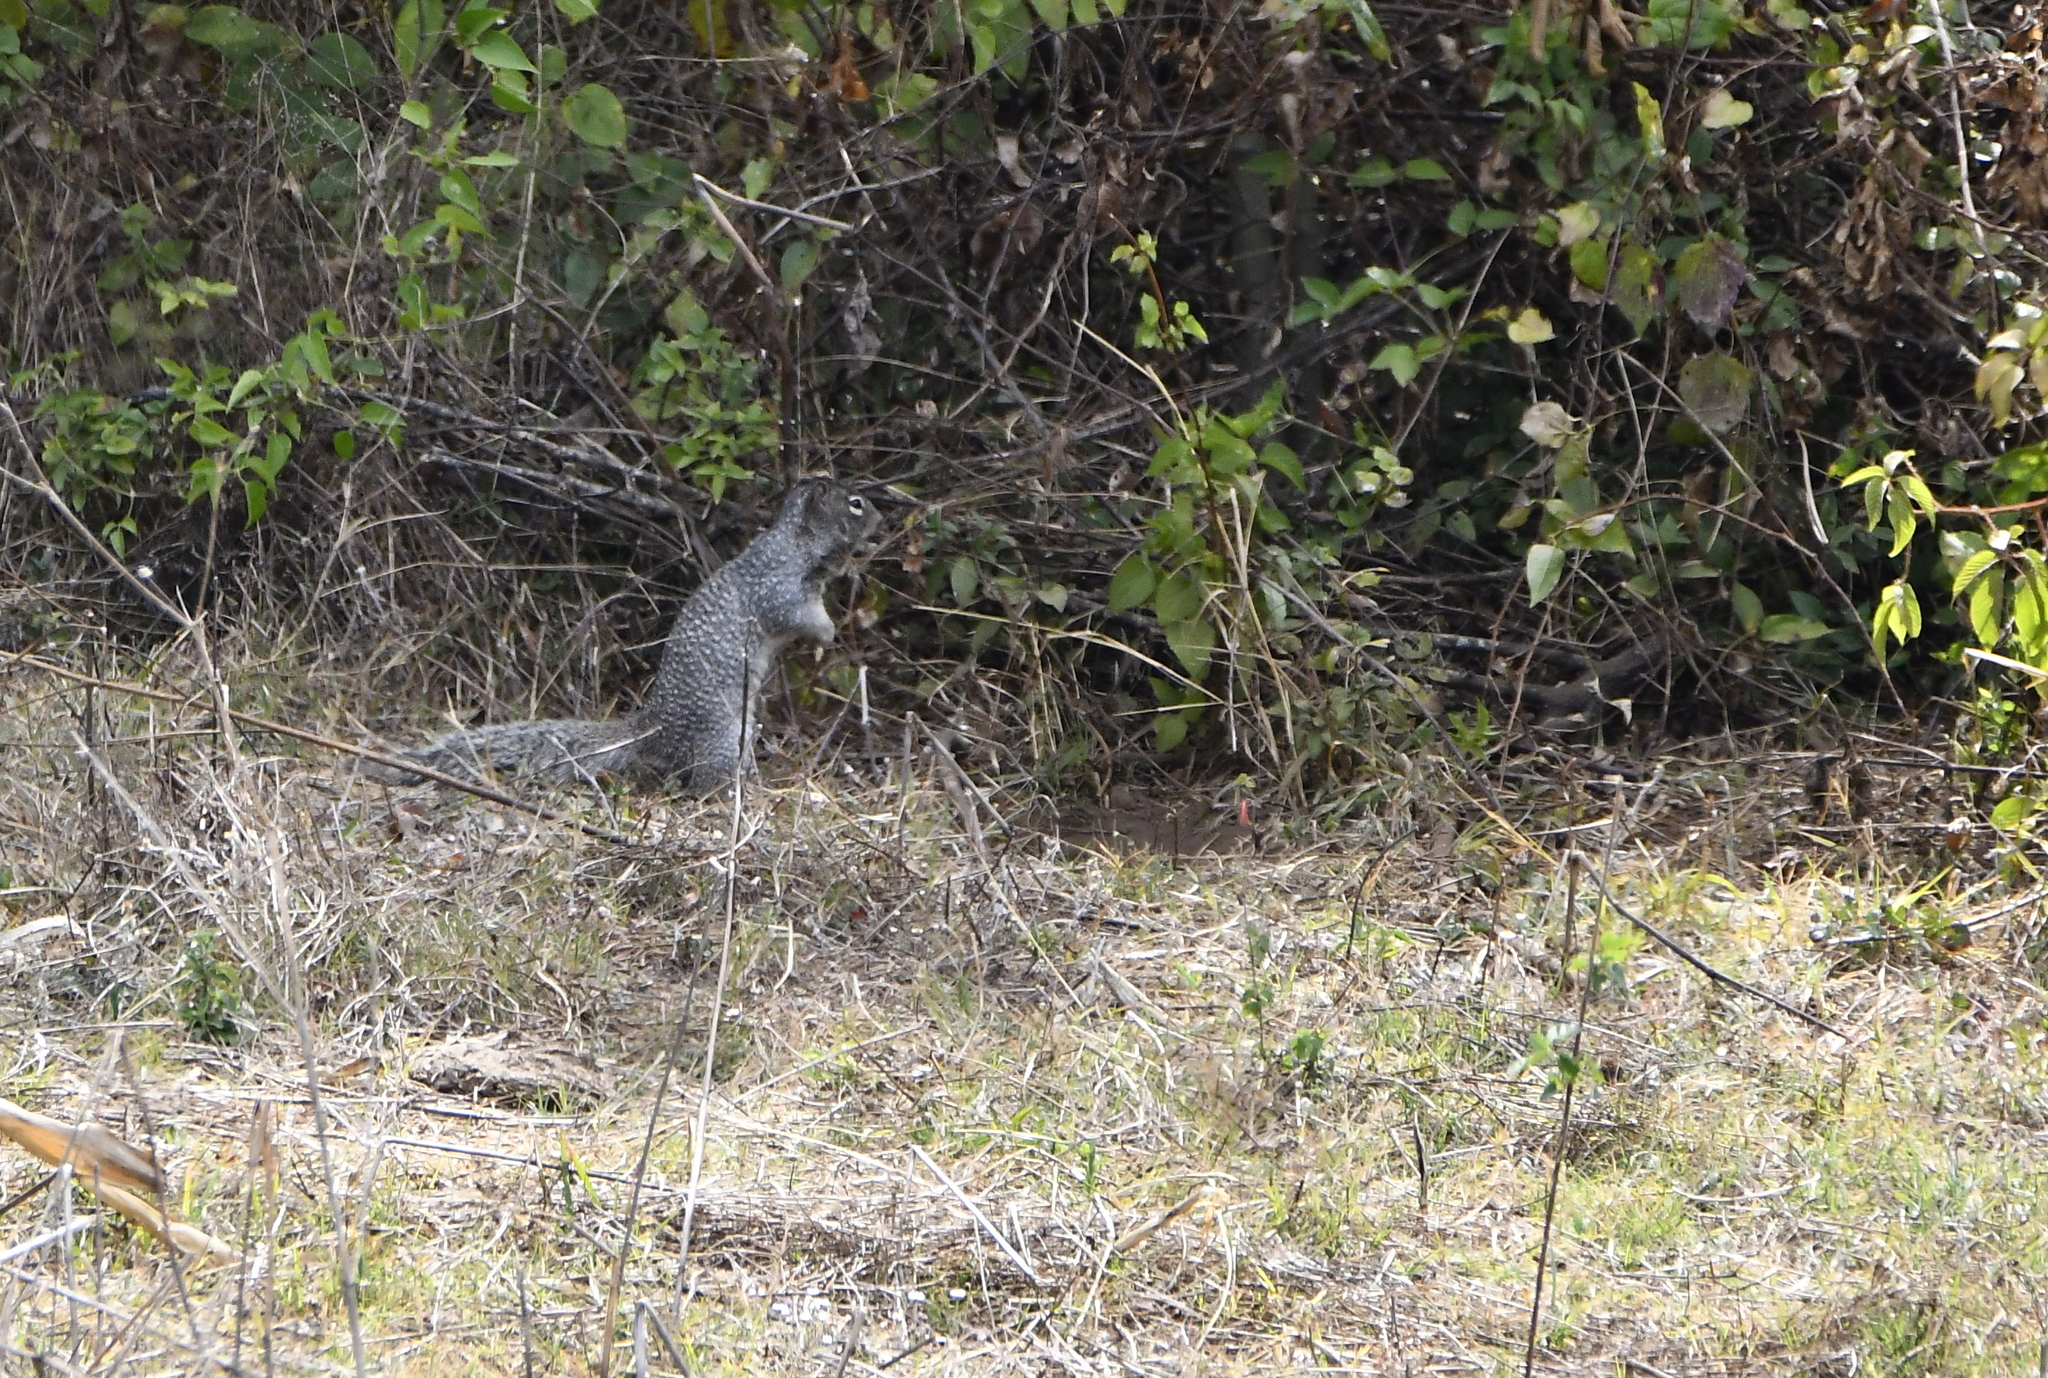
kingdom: Animalia
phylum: Chordata
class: Mammalia
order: Rodentia
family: Sciuridae
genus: Otospermophilus
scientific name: Otospermophilus variegatus
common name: Rock squirrel
